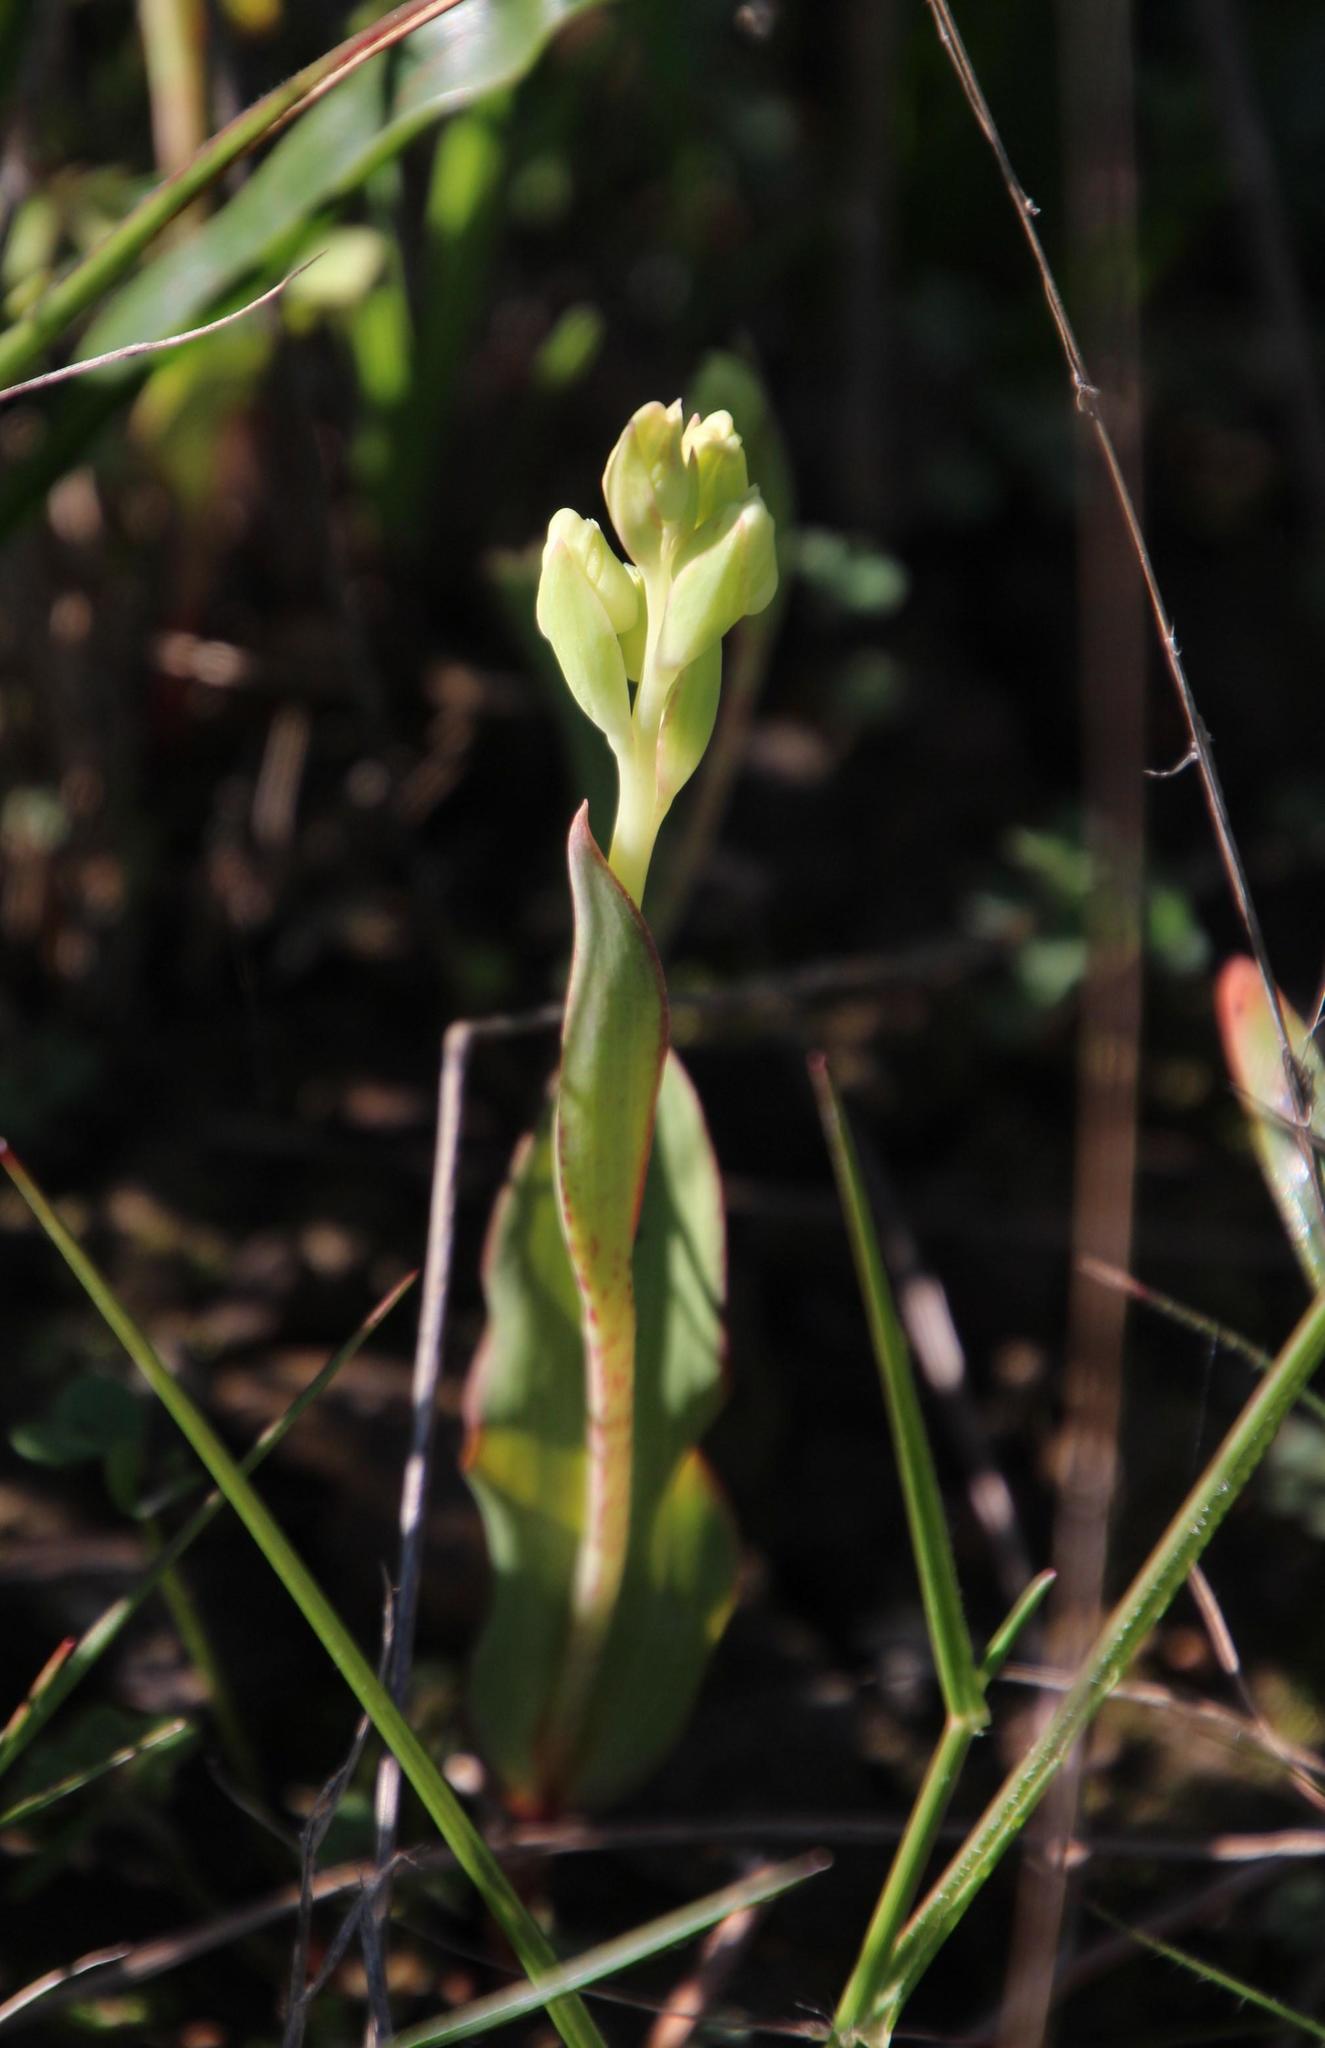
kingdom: Plantae
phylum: Tracheophyta
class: Liliopsida
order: Asparagales
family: Orchidaceae
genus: Pterygodium
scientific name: Pterygodium catholicum
